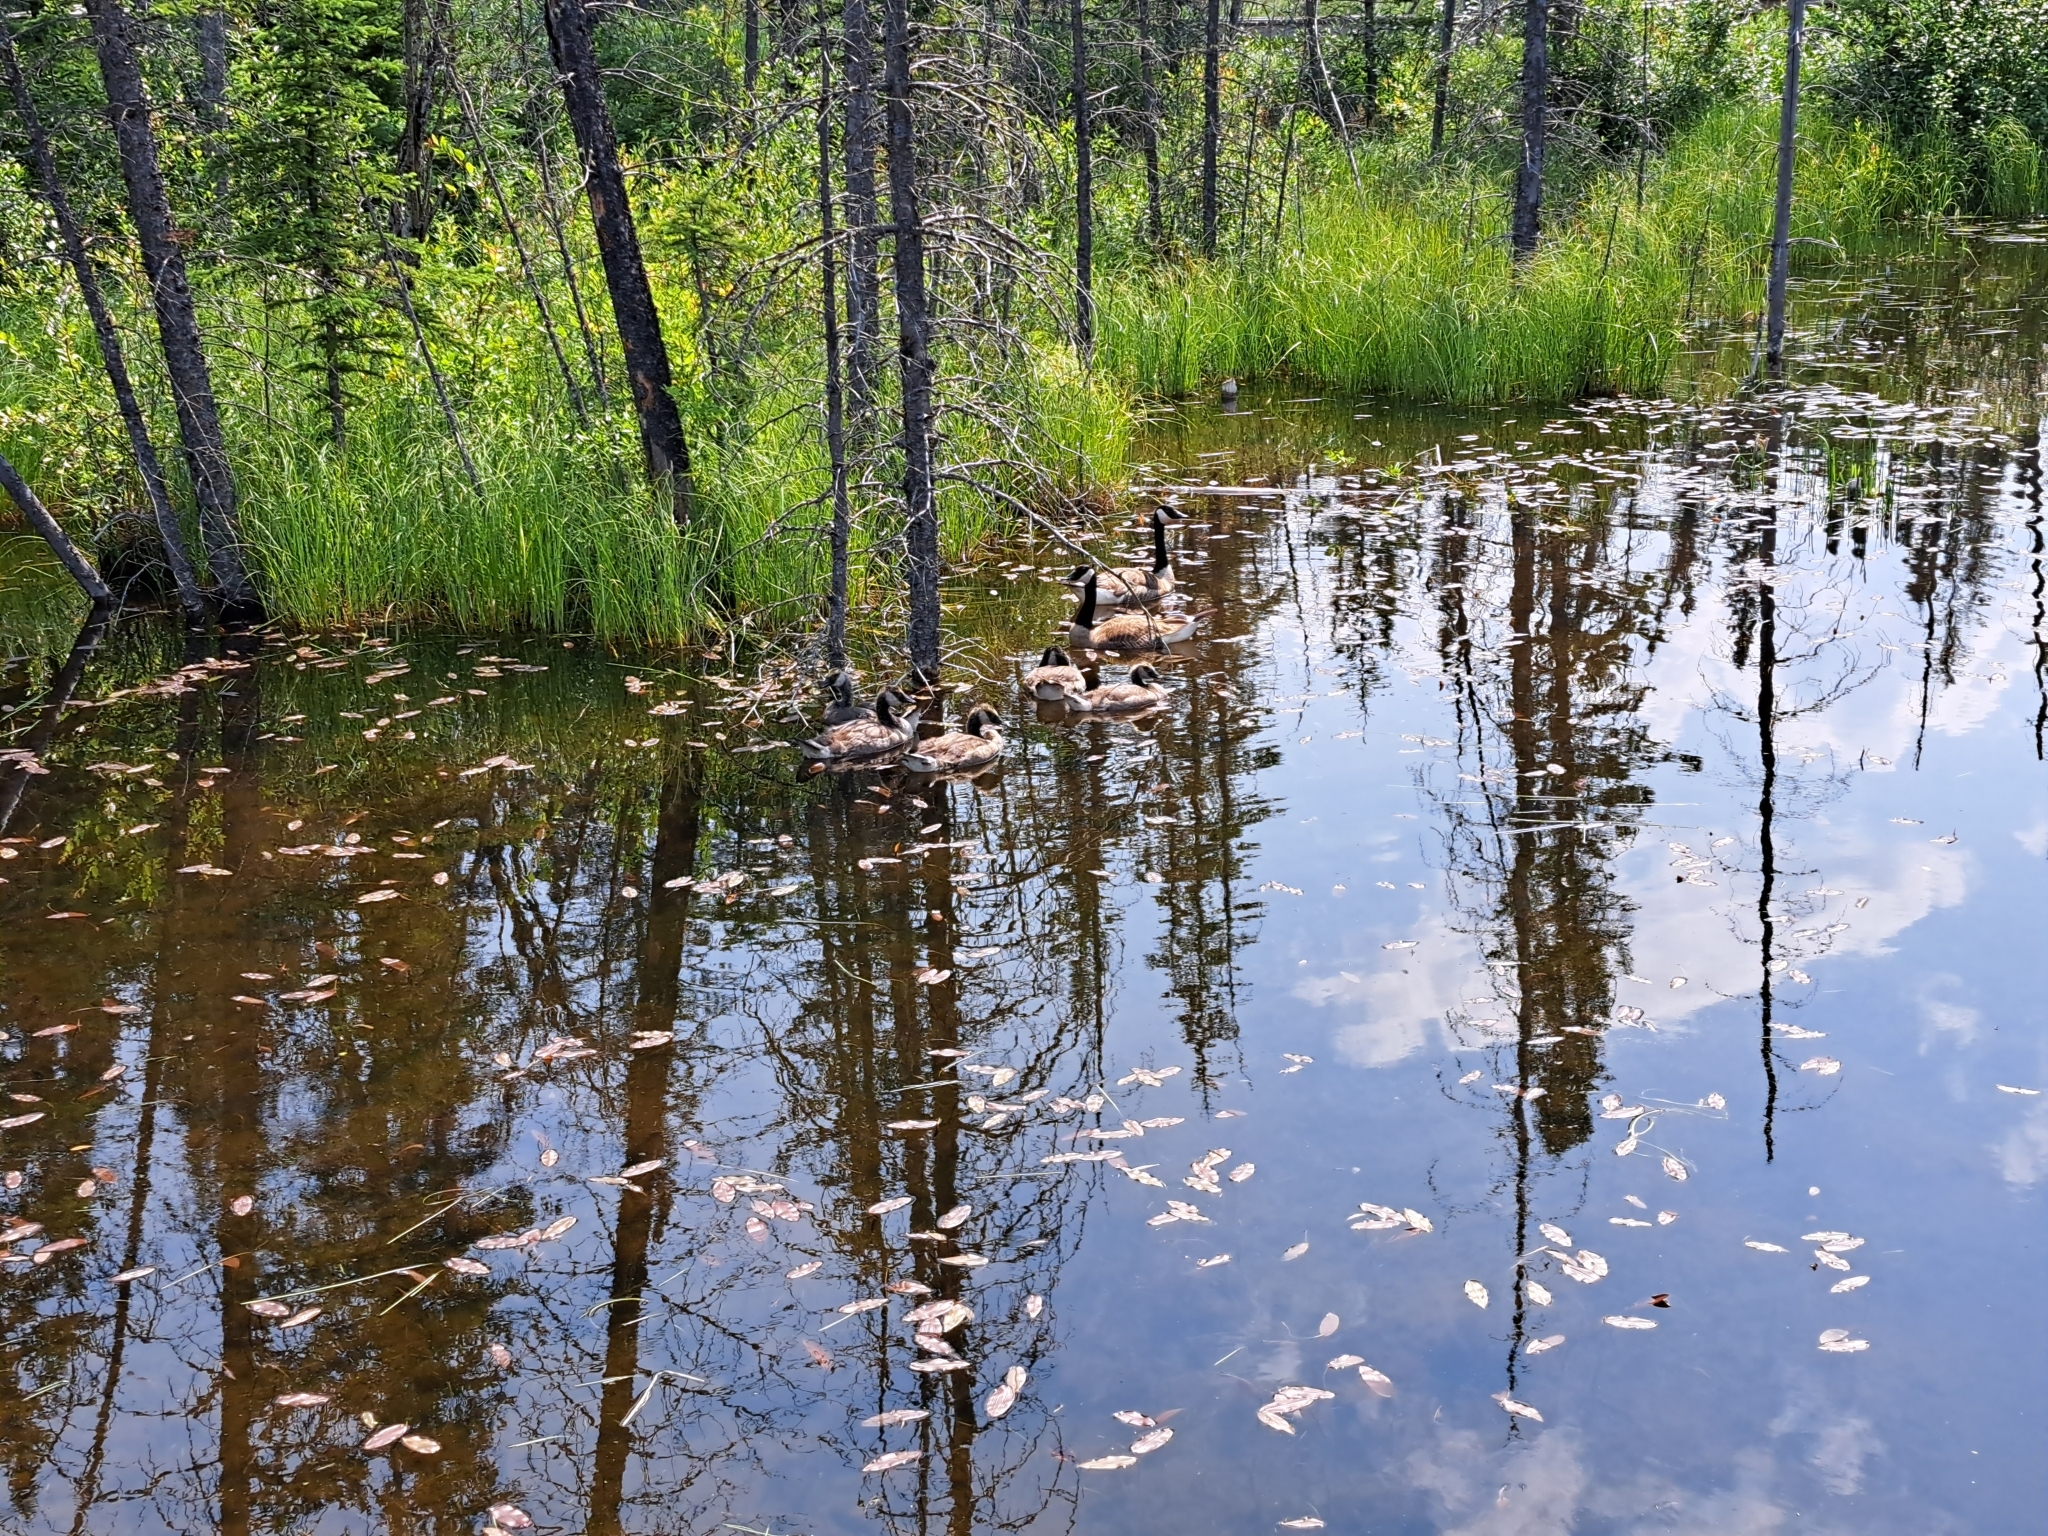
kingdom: Animalia
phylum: Chordata
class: Aves
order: Anseriformes
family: Anatidae
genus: Branta
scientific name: Branta canadensis
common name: Canada goose
